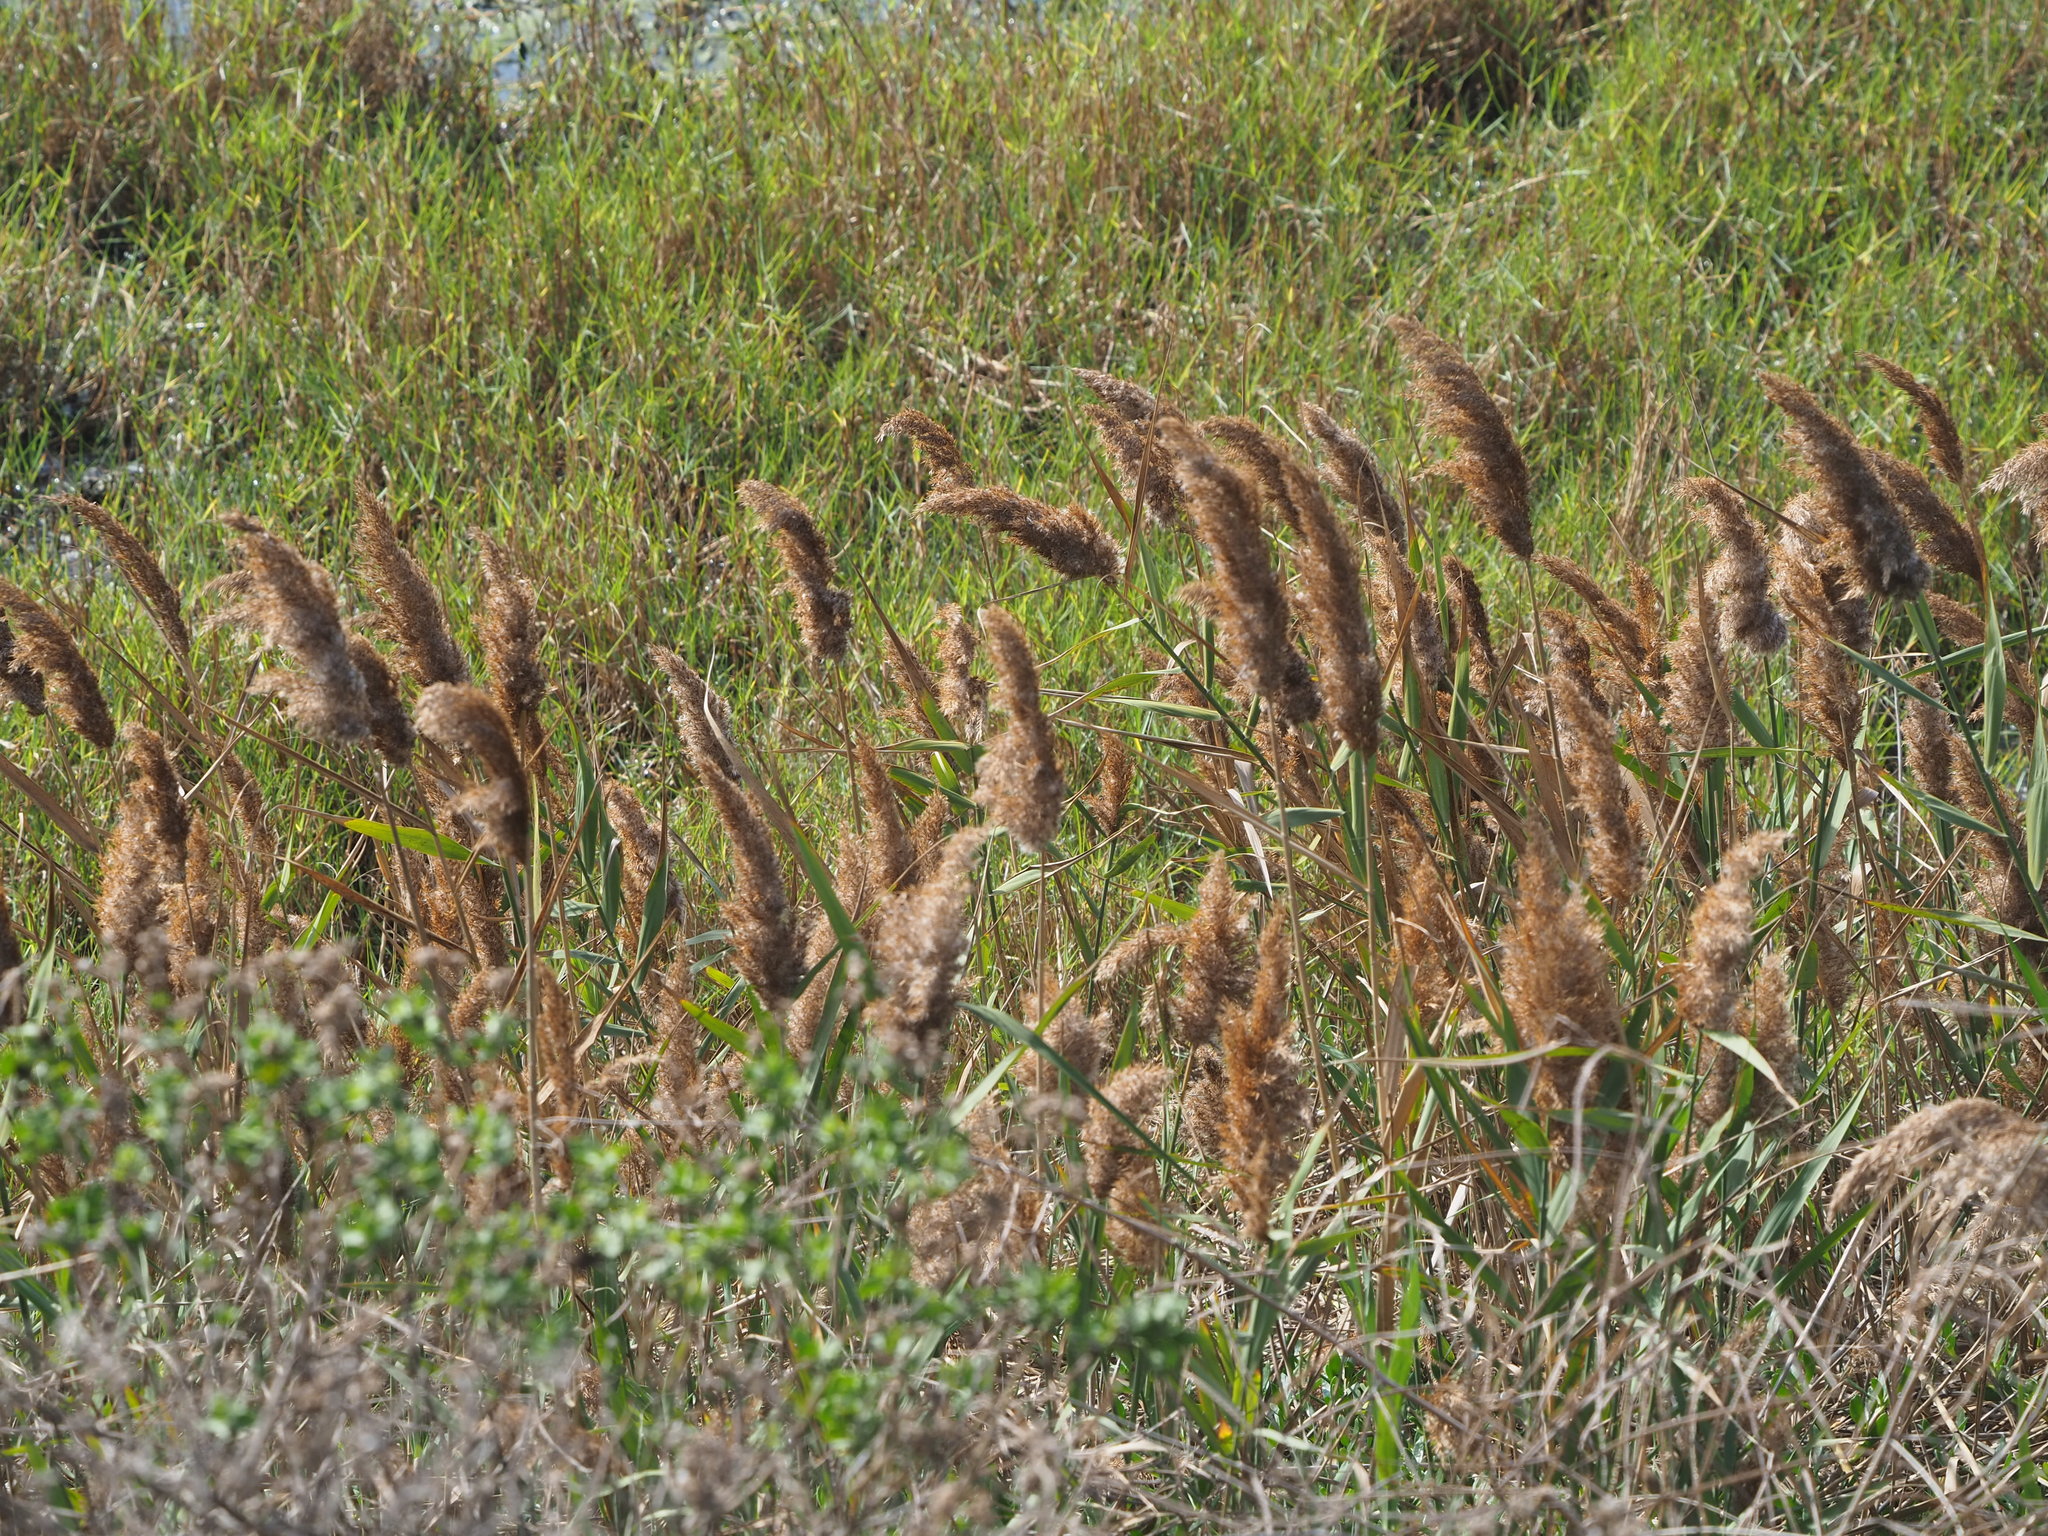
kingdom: Plantae
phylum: Tracheophyta
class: Liliopsida
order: Poales
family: Poaceae
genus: Phragmites
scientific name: Phragmites australis
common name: Common reed
